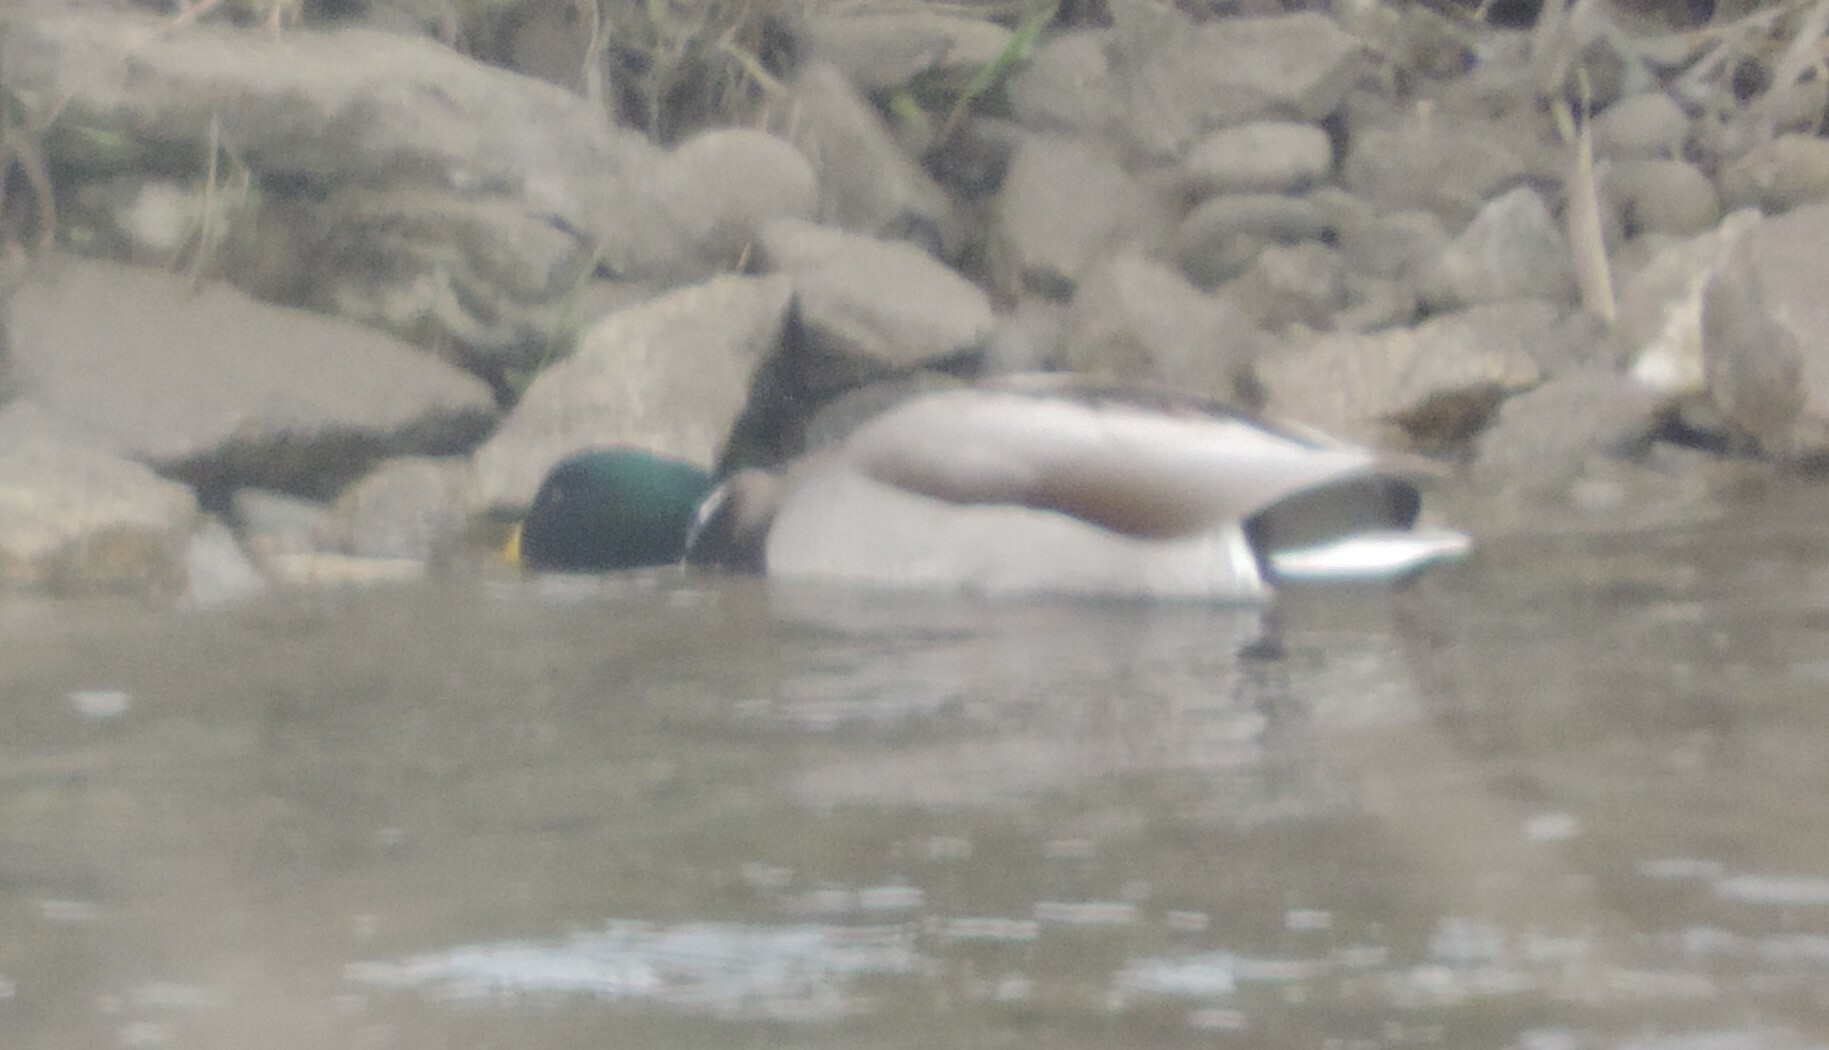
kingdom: Animalia
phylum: Chordata
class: Aves
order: Anseriformes
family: Anatidae
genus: Anas
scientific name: Anas platyrhynchos
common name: Mallard
